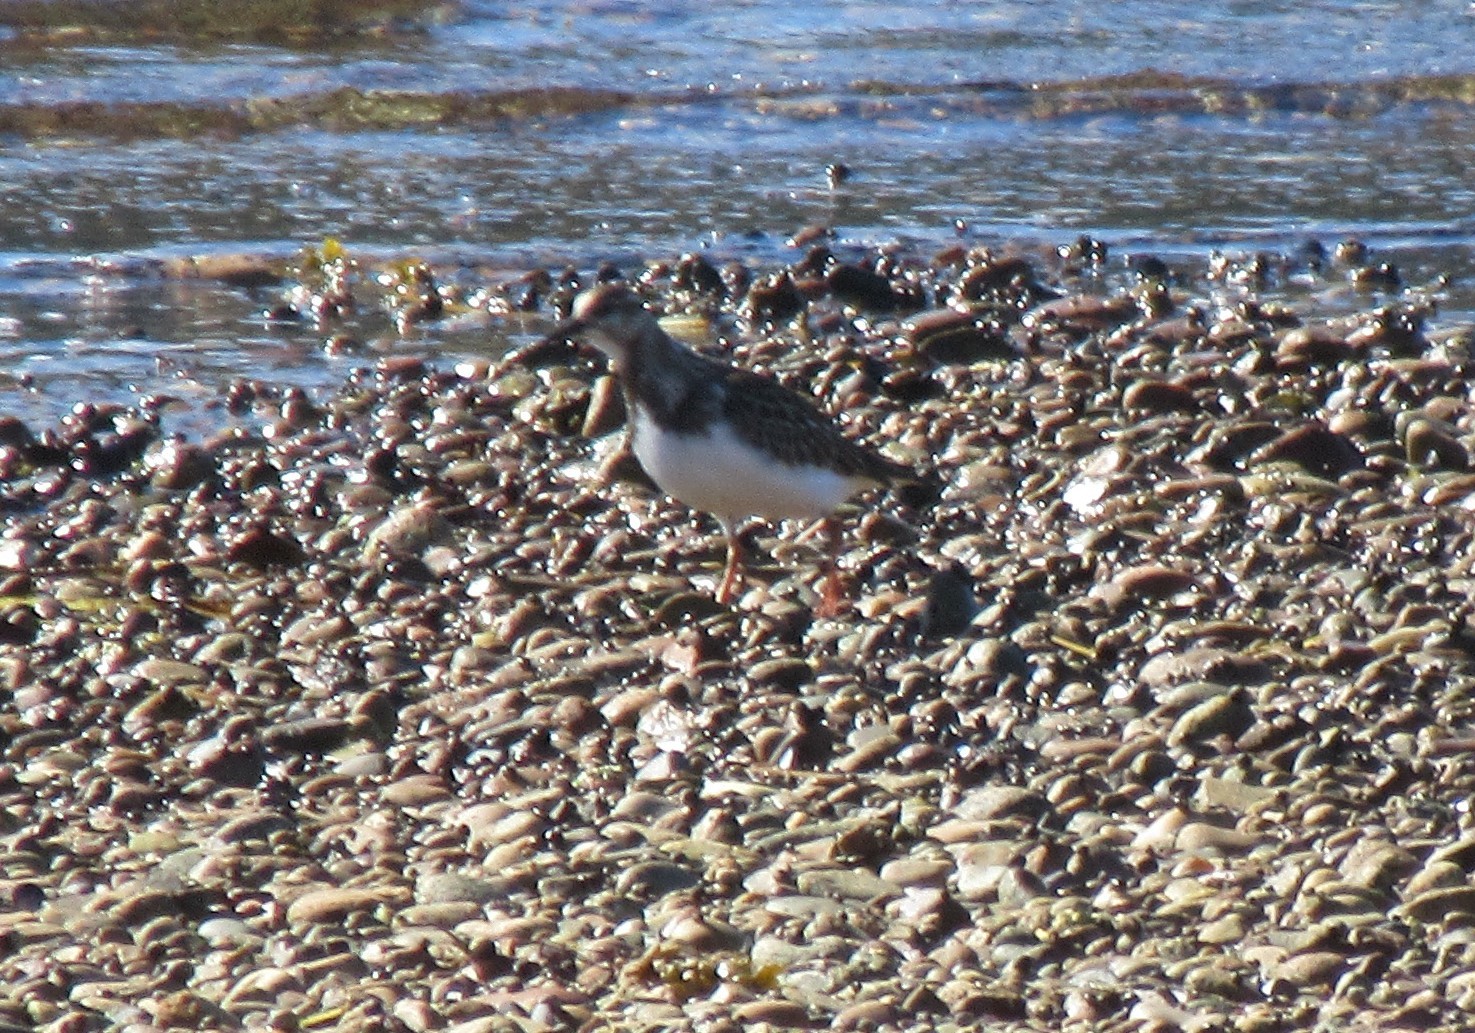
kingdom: Animalia
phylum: Chordata
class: Aves
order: Charadriiformes
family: Scolopacidae
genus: Arenaria
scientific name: Arenaria interpres
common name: Ruddy turnstone
